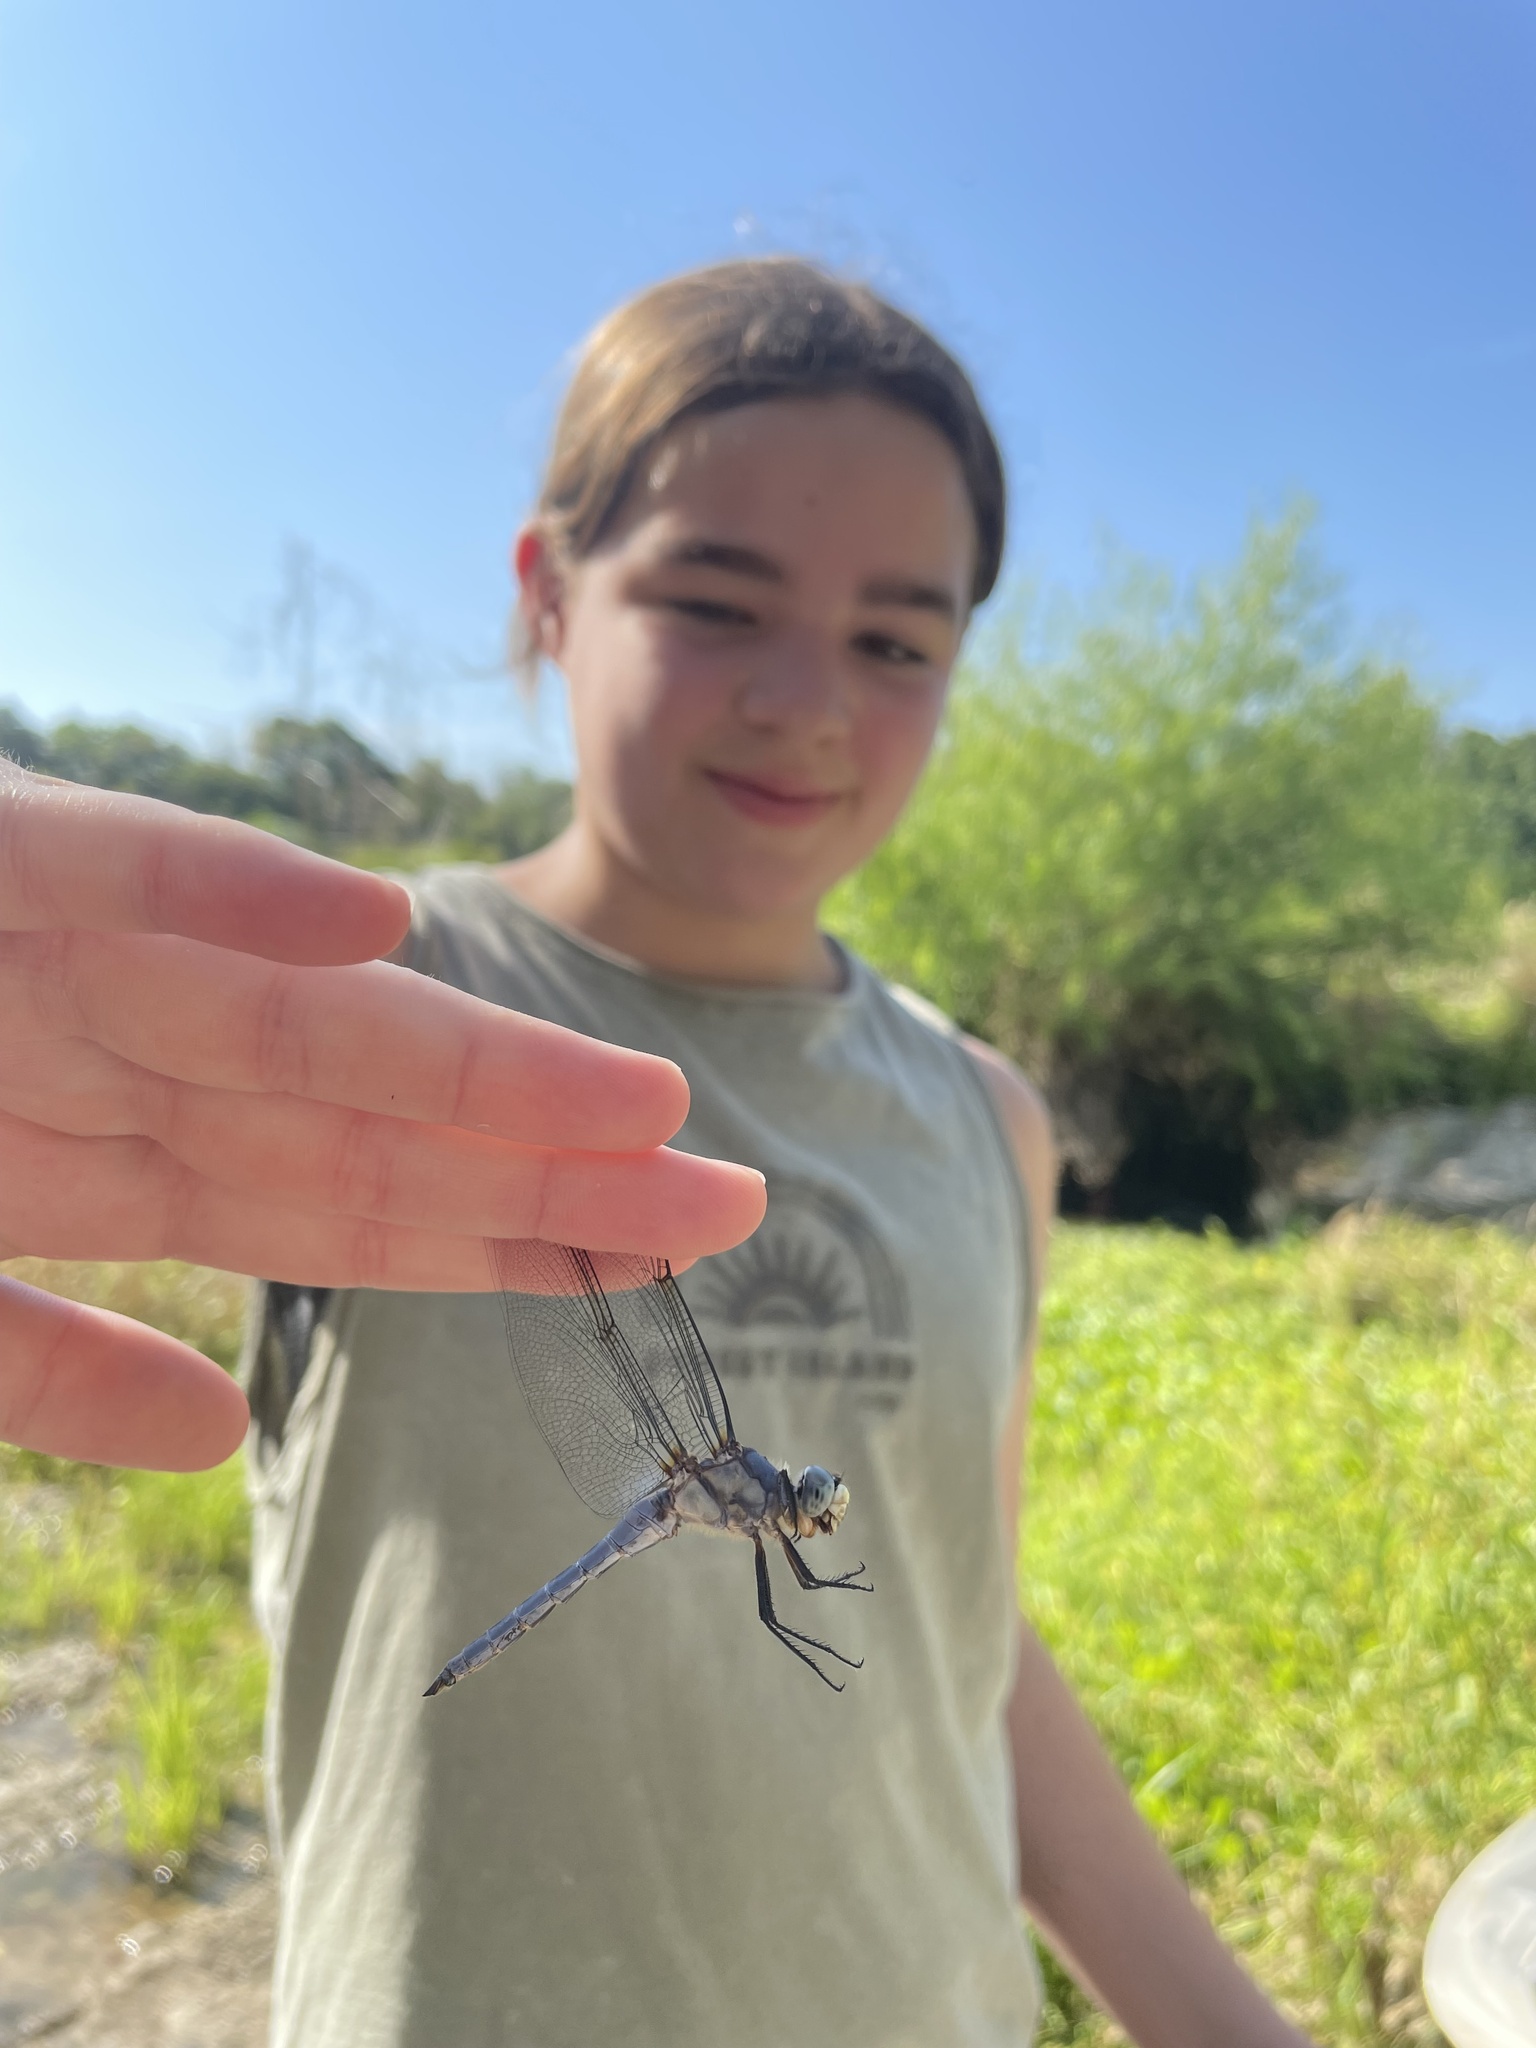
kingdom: Animalia
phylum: Arthropoda
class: Insecta
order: Odonata
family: Libellulidae
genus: Libellula
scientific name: Libellula comanche
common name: Comanche skimmer
